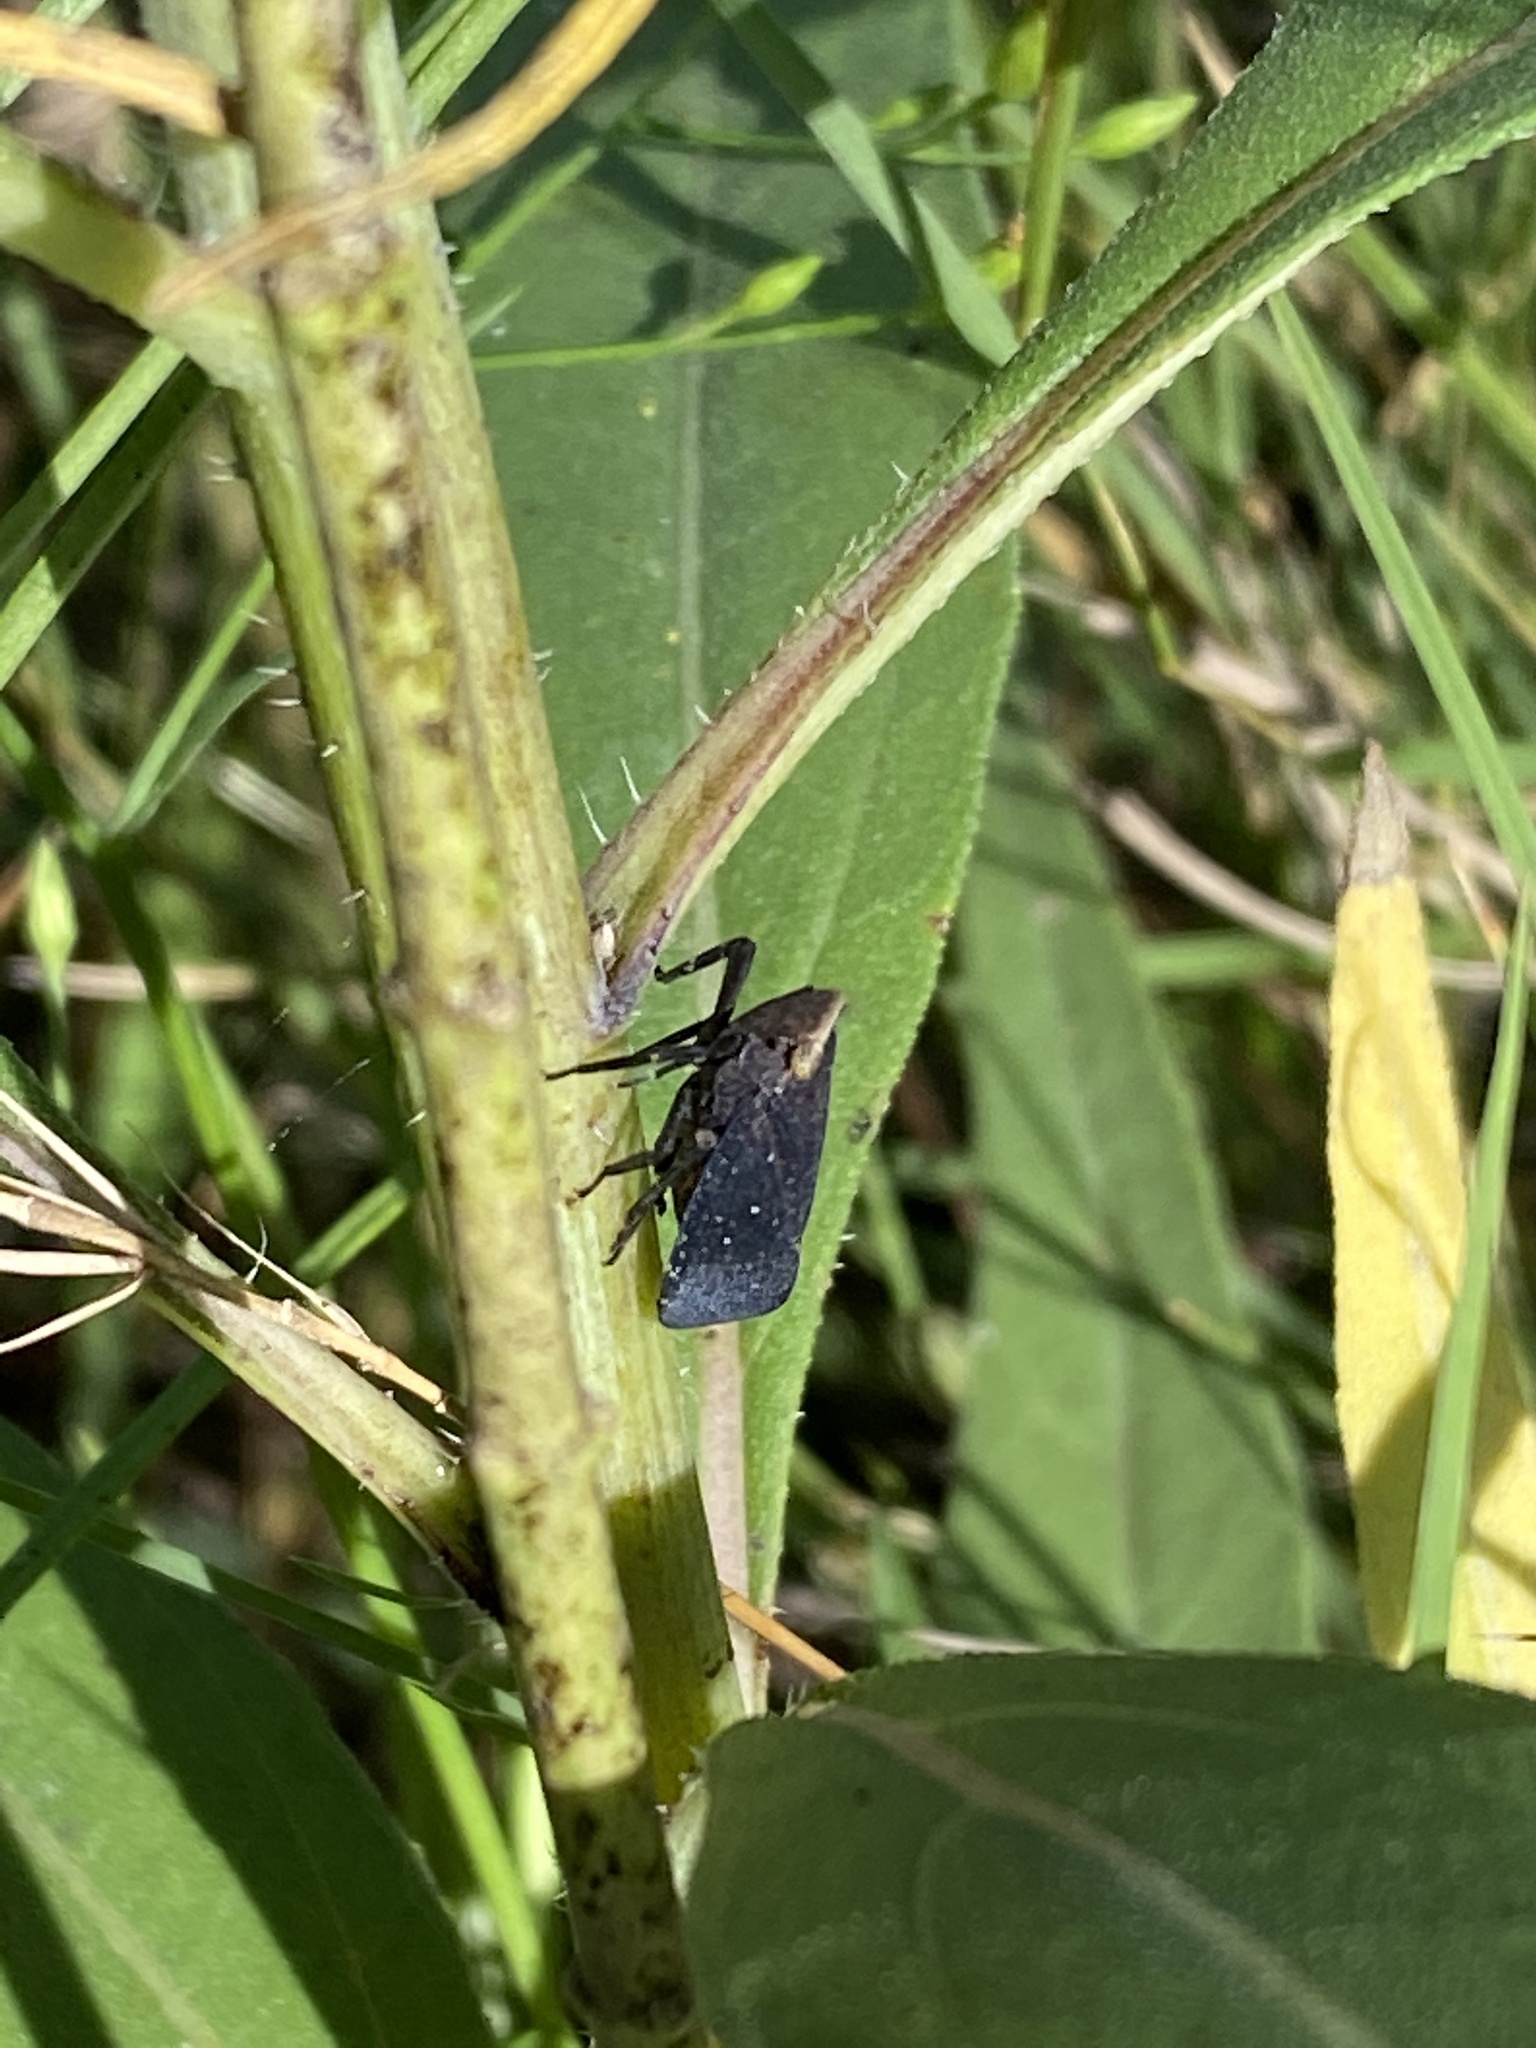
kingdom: Animalia
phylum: Arthropoda
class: Insecta
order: Hemiptera
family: Fulgoridae
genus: Crepusia
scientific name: Crepusia fuliginosa
